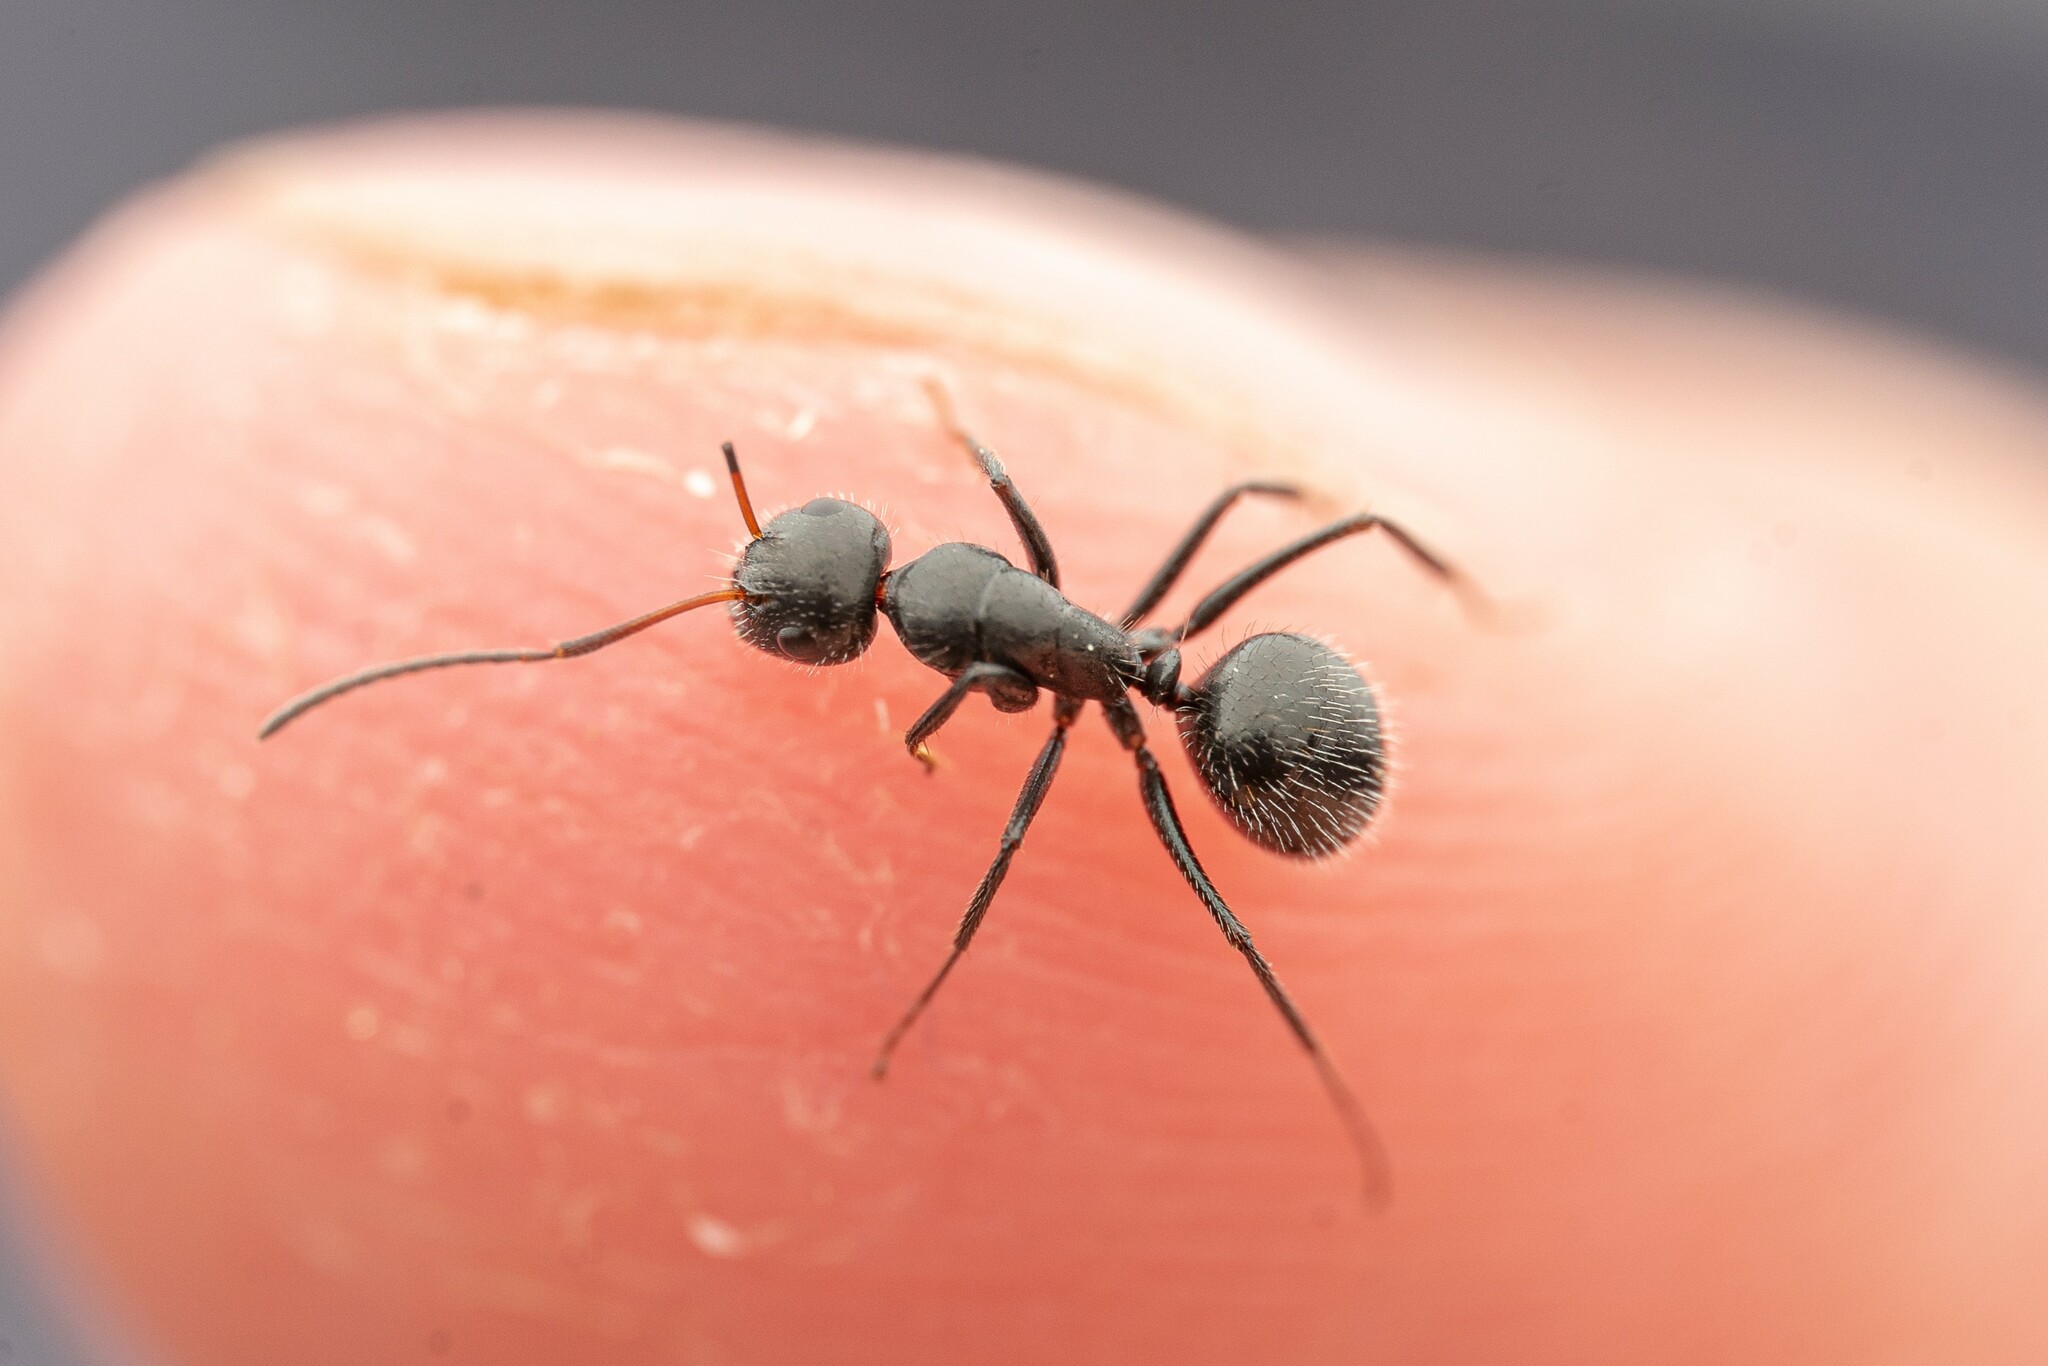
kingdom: Animalia
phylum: Arthropoda
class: Insecta
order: Hymenoptera
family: Formicidae
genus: Camponotus
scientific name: Camponotus ulcerosus
